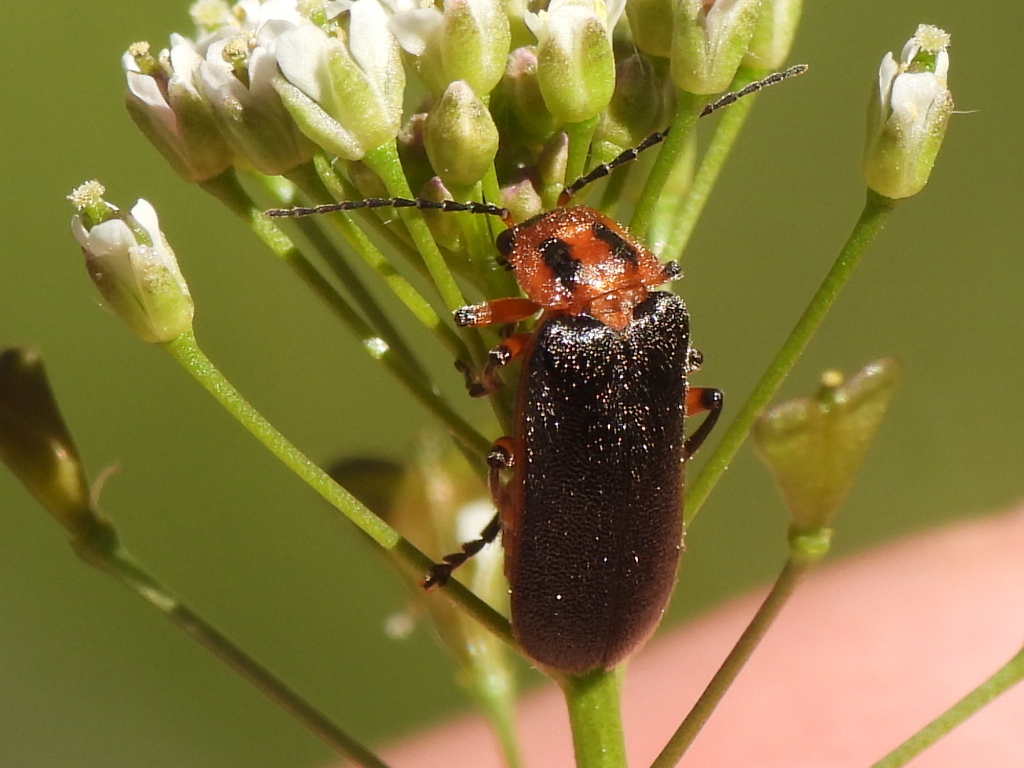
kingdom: Animalia
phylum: Arthropoda
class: Insecta
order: Coleoptera
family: Cantharidae
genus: Atalantycha
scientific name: Atalantycha bilineata
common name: Two-lined leatherwing
